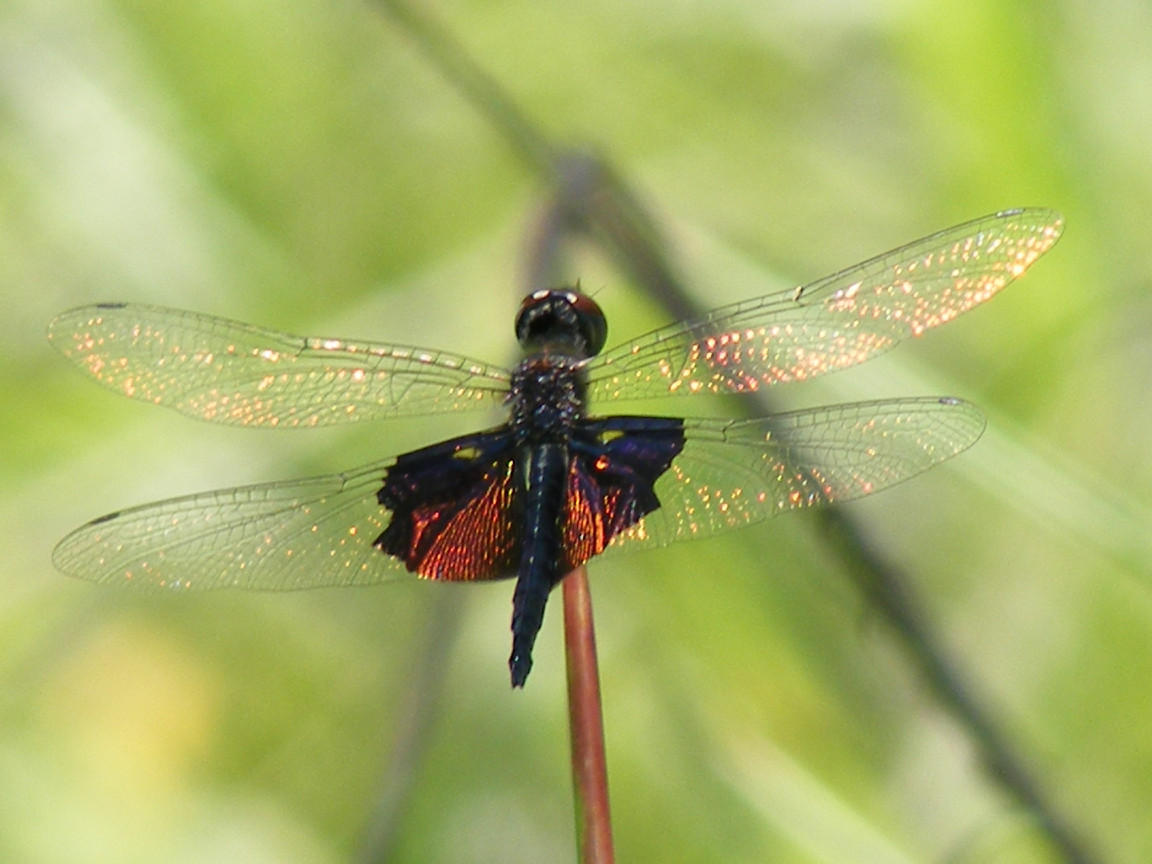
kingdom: Animalia
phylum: Arthropoda
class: Insecta
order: Odonata
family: Libellulidae
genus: Rhyothemis
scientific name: Rhyothemis semihyalina
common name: Phantom flutterer
